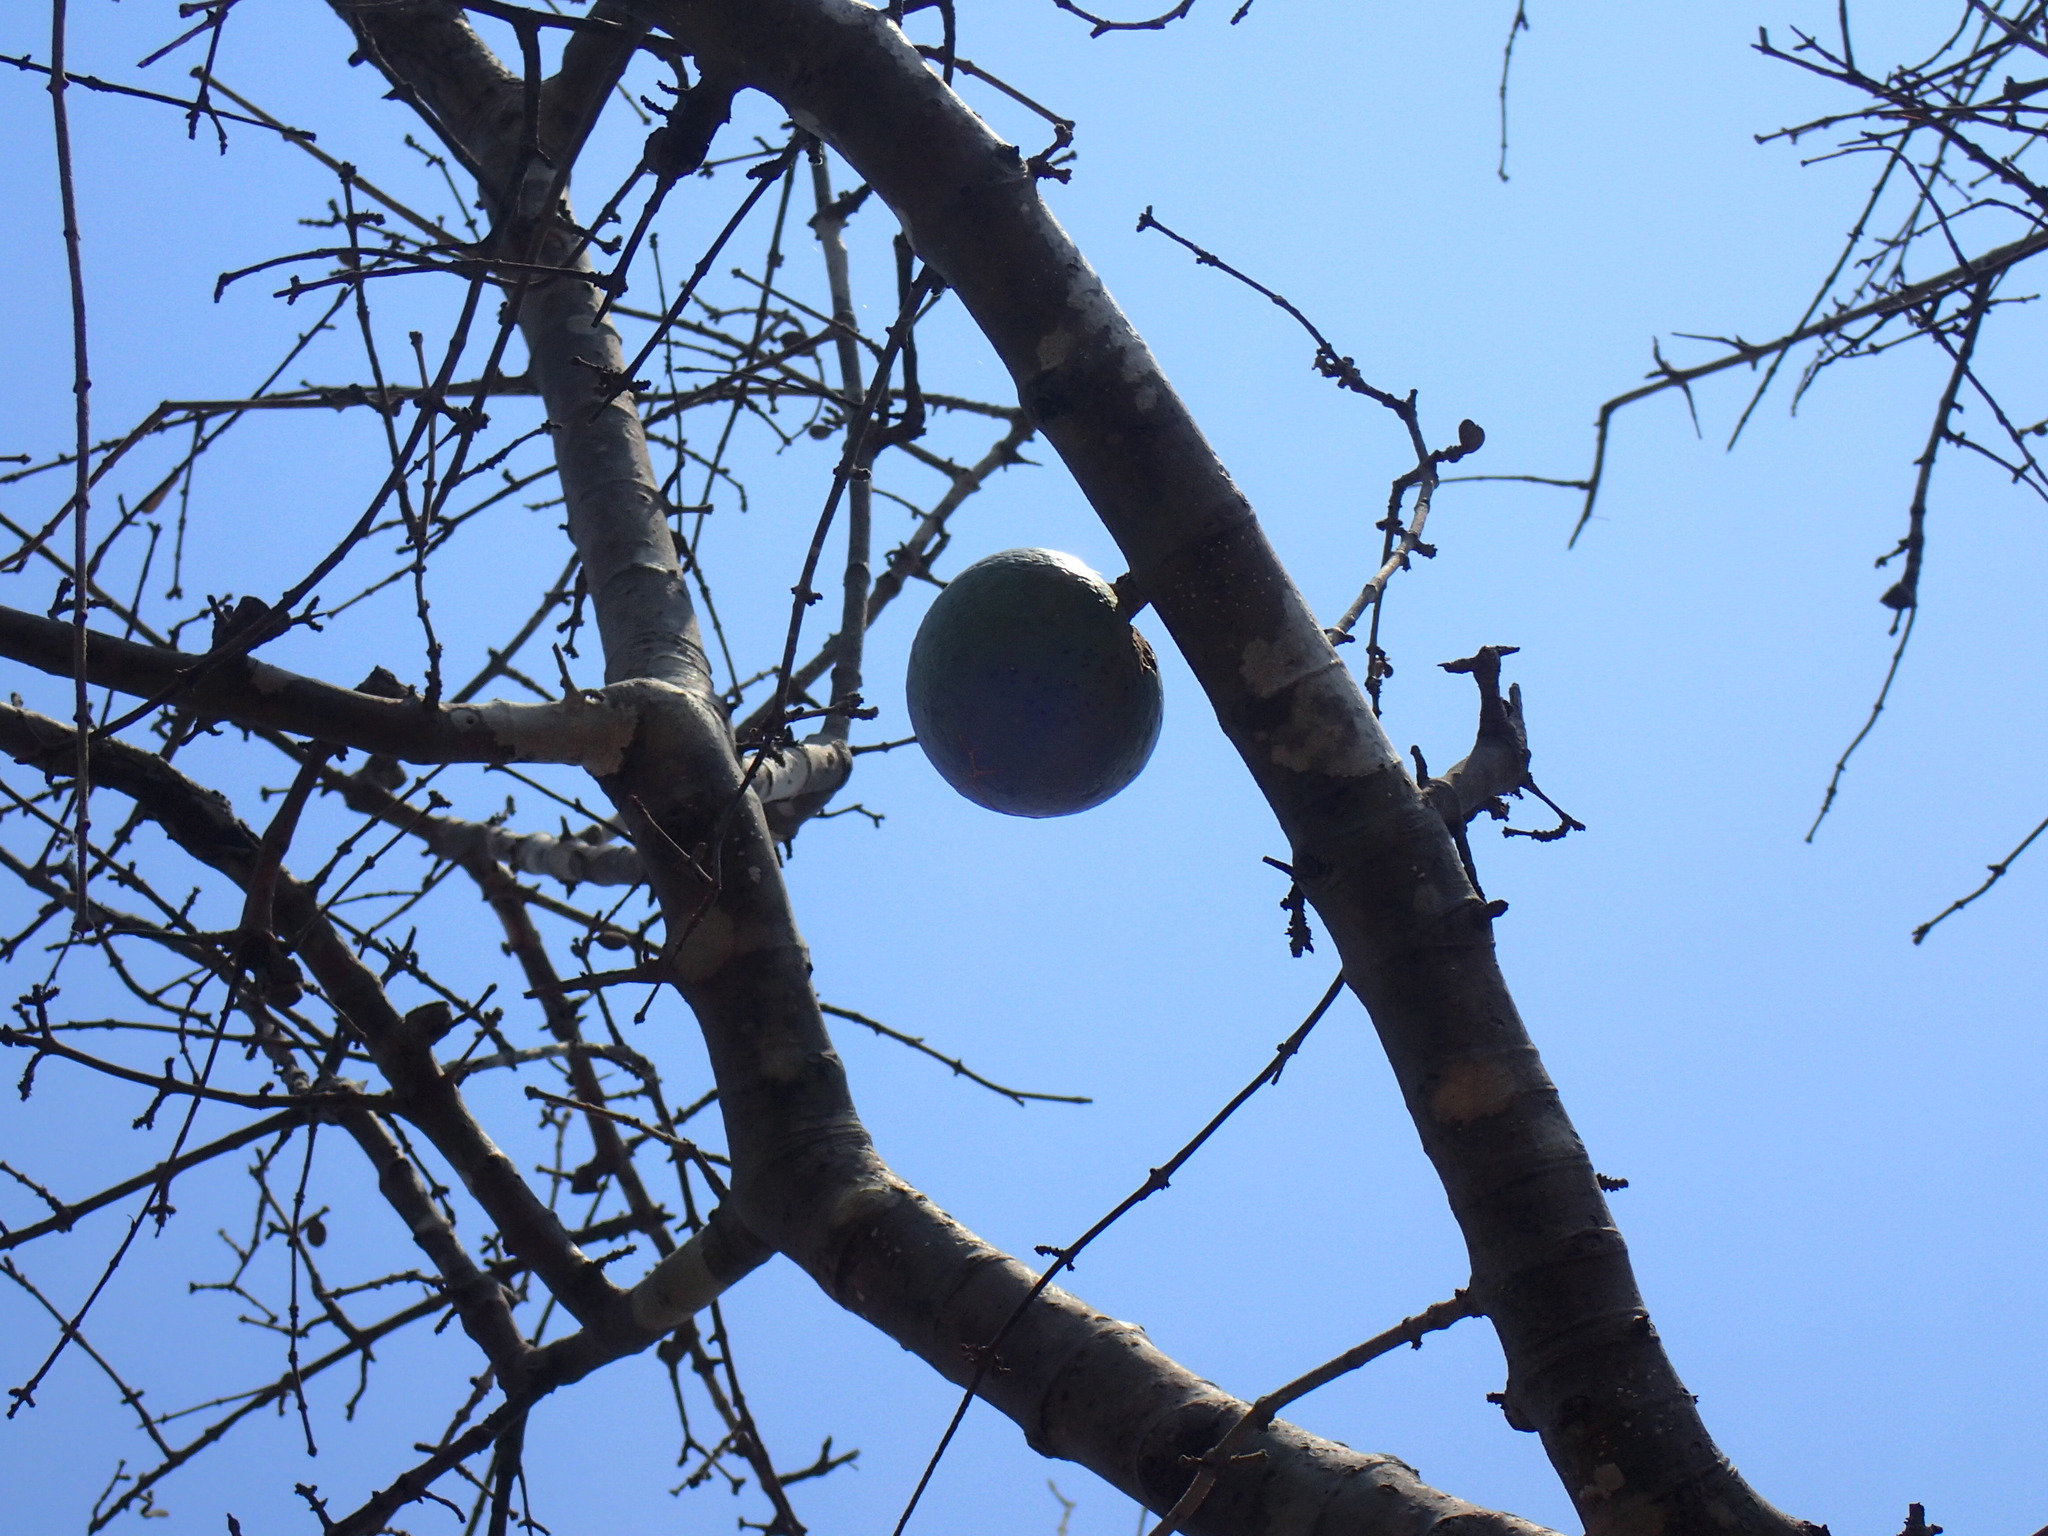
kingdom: Plantae
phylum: Tracheophyta
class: Magnoliopsida
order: Gentianales
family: Loganiaceae
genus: Strychnos
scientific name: Strychnos madagascariensis
